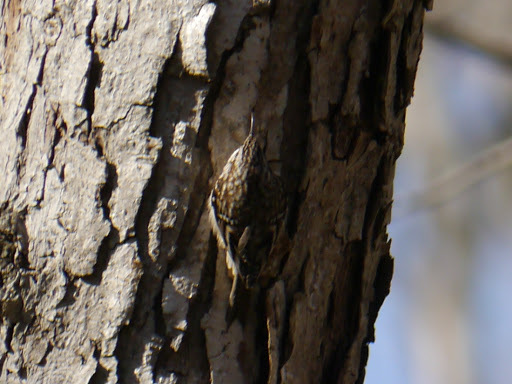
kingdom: Animalia
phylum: Chordata
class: Aves
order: Passeriformes
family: Certhiidae
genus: Certhia
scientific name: Certhia americana
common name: Brown creeper
